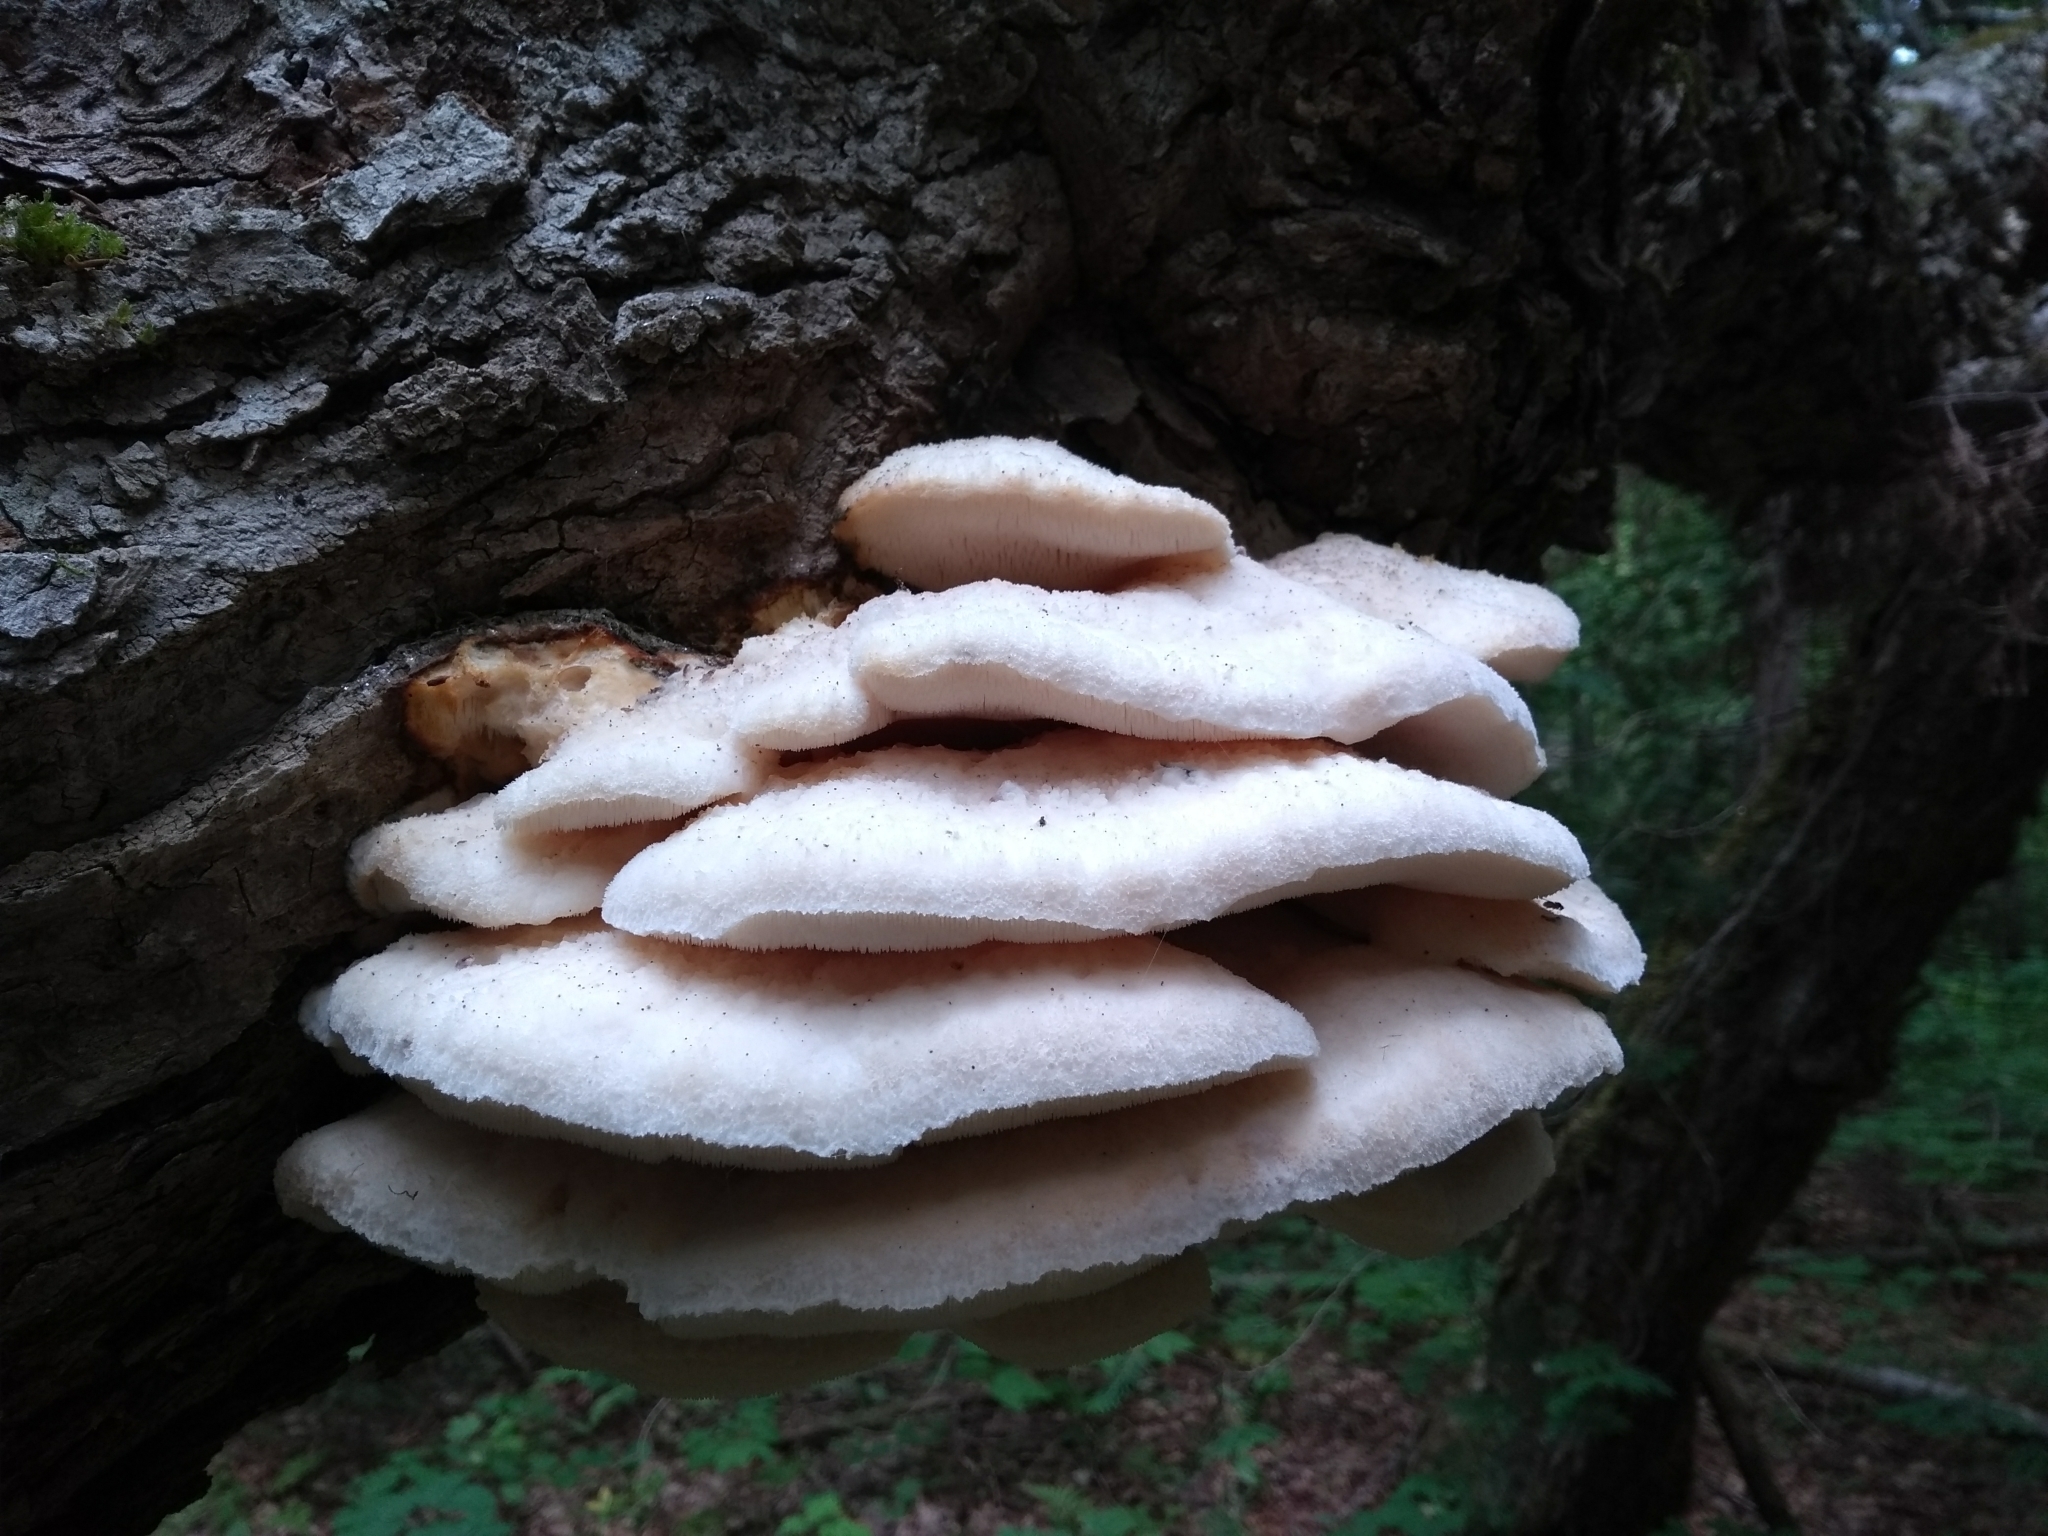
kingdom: Fungi
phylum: Basidiomycota
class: Agaricomycetes
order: Polyporales
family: Meruliaceae
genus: Climacodon
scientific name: Climacodon septentrionalis
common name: Northern tooth
